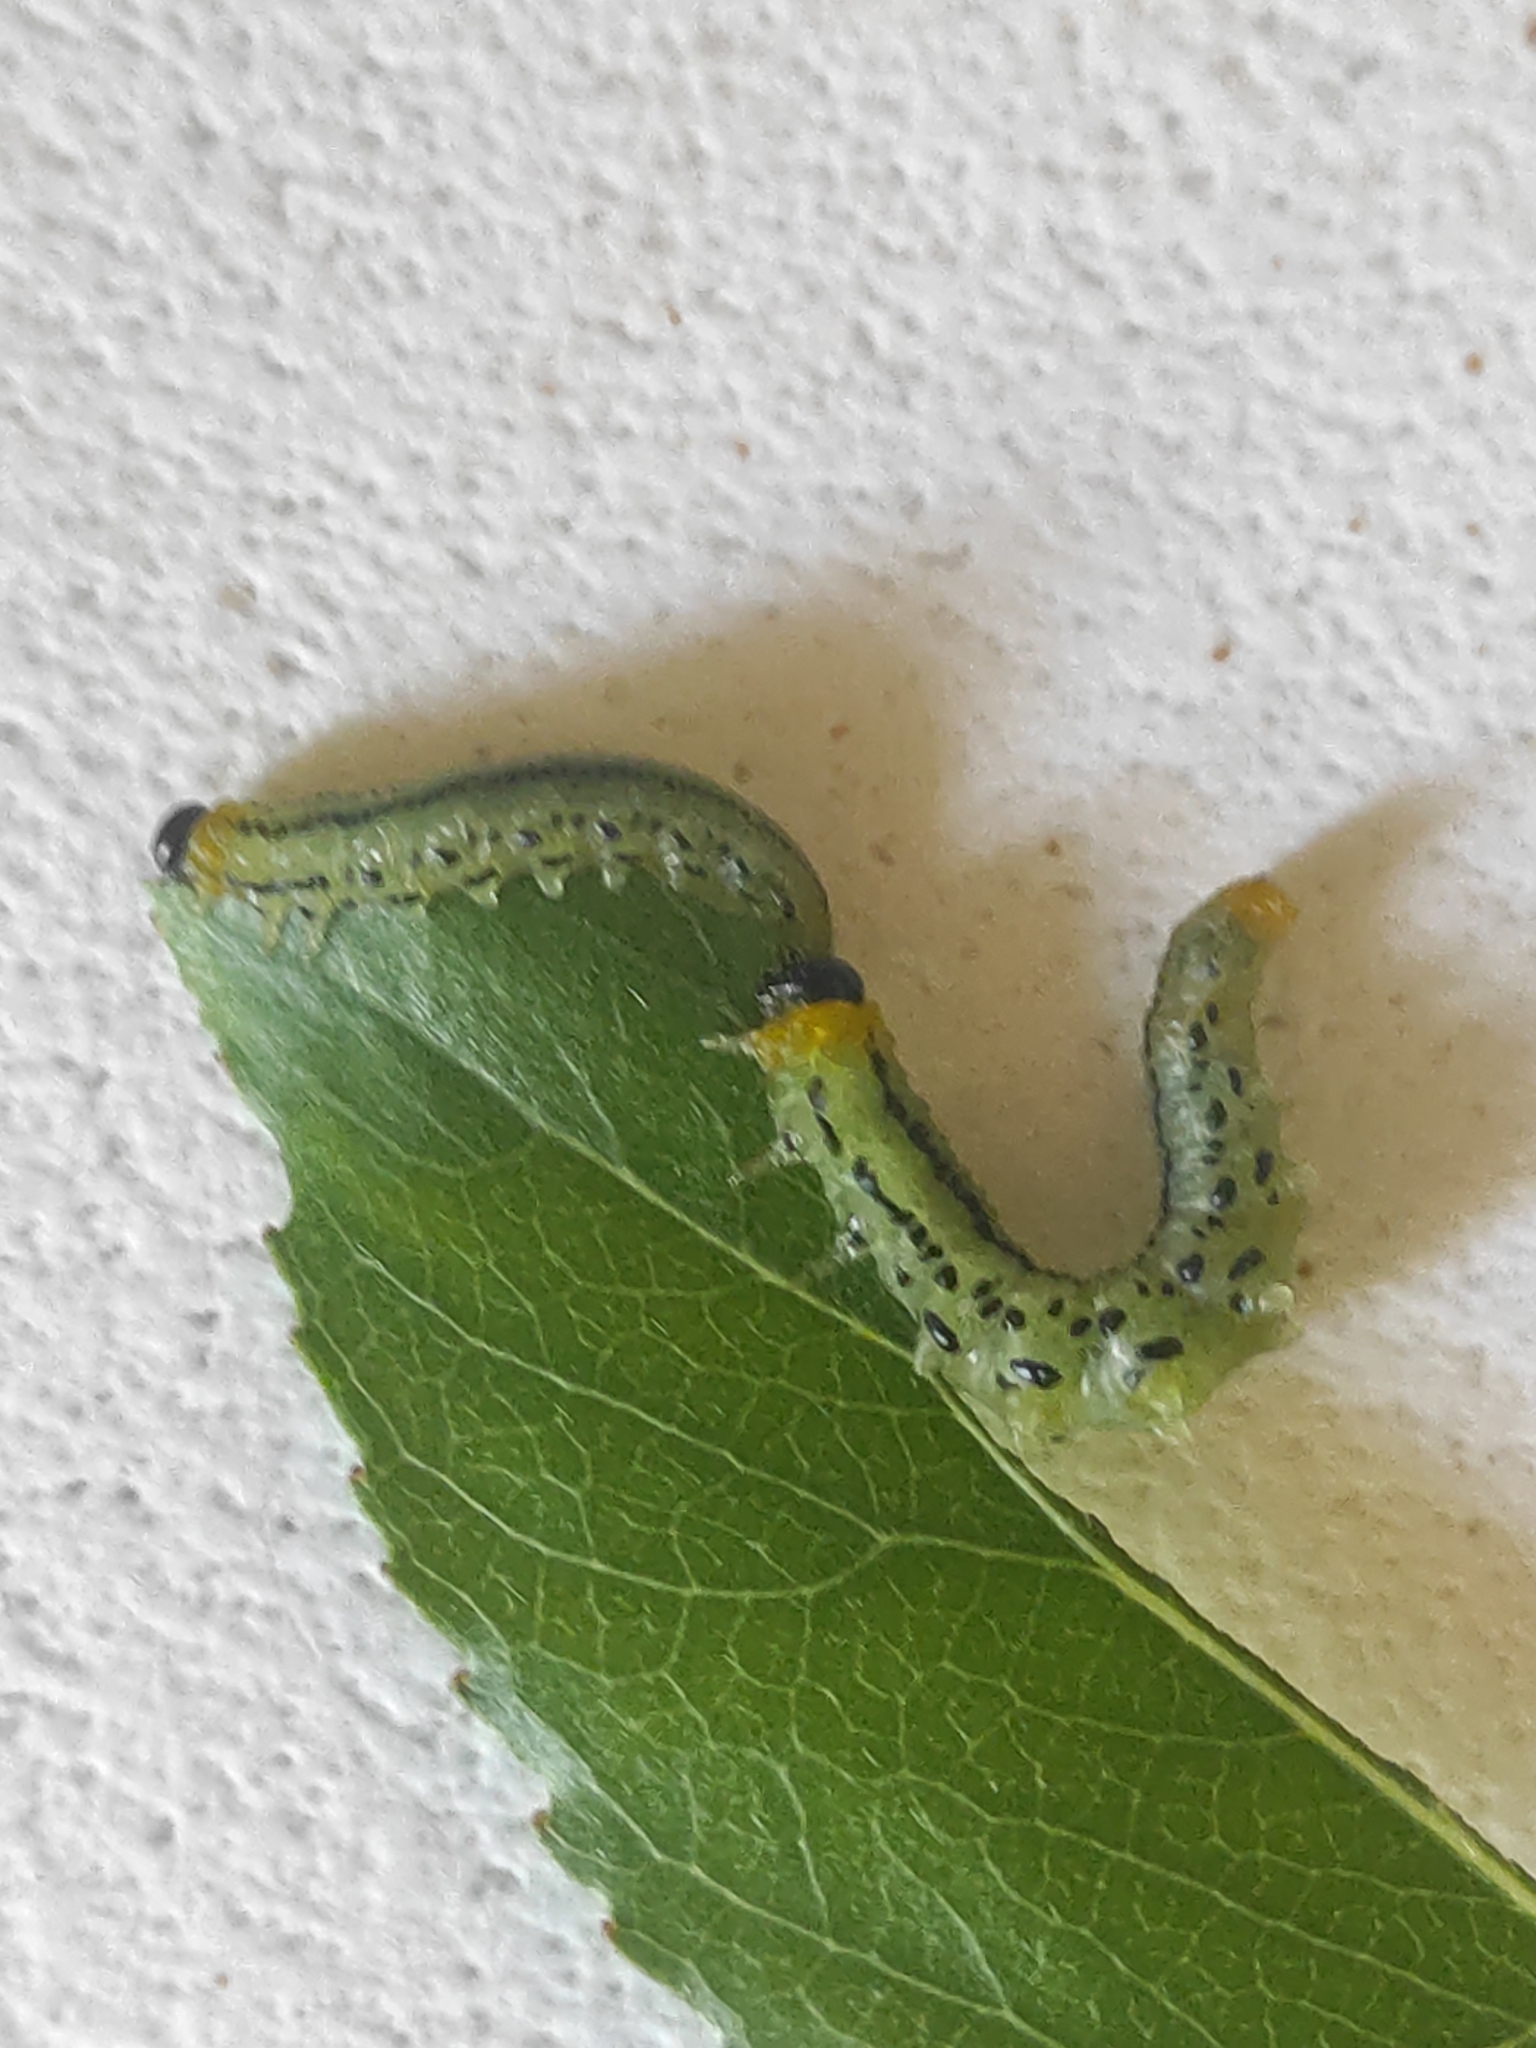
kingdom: Animalia
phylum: Arthropoda
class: Insecta
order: Hymenoptera
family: Tenthredinidae
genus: Nematus
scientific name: Nematus pavidus
